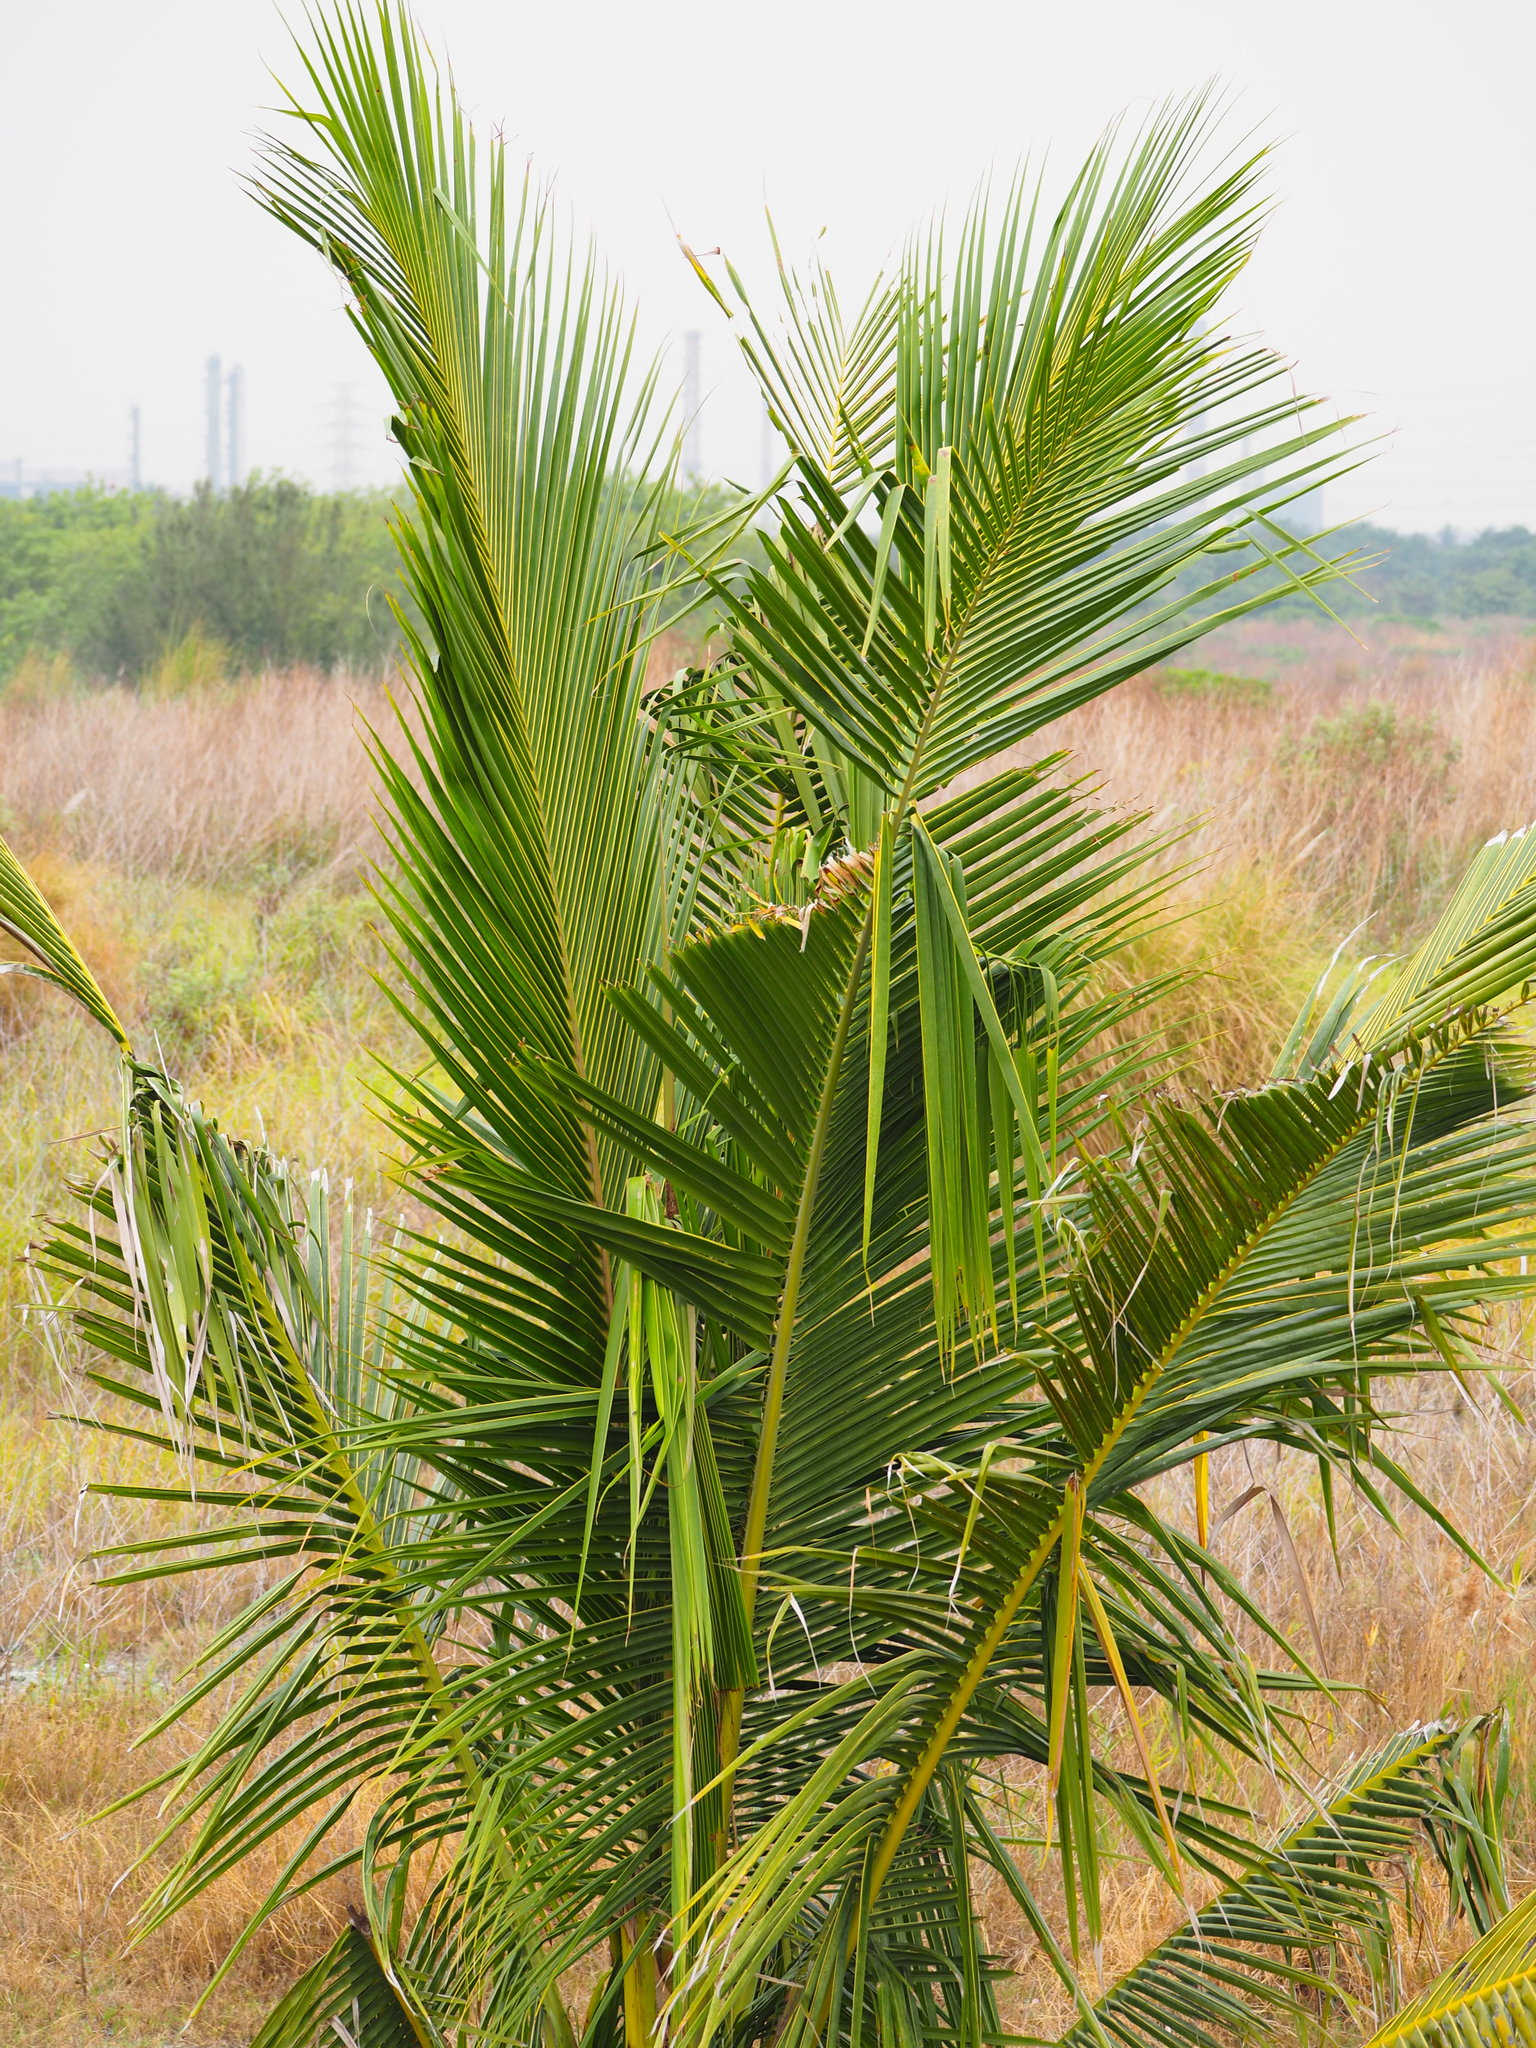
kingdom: Plantae
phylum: Tracheophyta
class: Liliopsida
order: Arecales
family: Arecaceae
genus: Cocos
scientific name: Cocos nucifera
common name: Coconut palm
